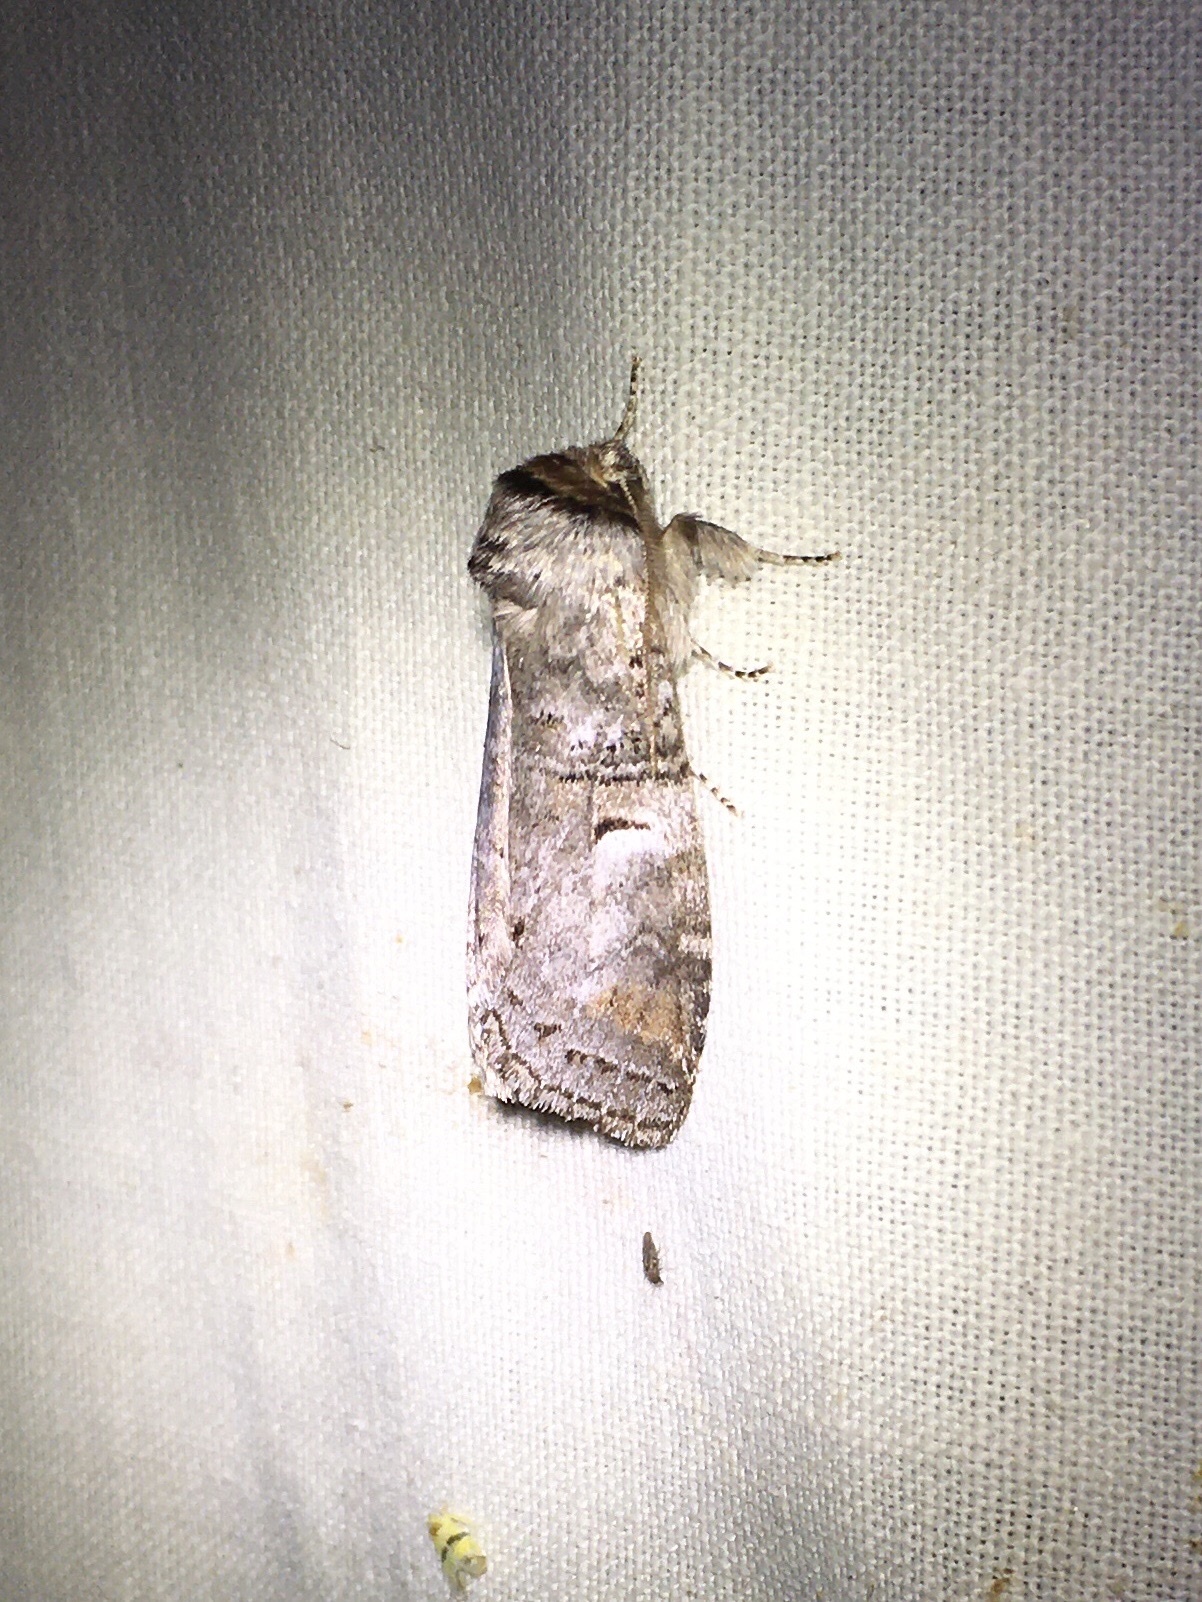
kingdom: Animalia
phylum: Arthropoda
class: Insecta
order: Lepidoptera
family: Notodontidae
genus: Ellida
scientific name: Ellida caniplaga
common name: Linden prominent
